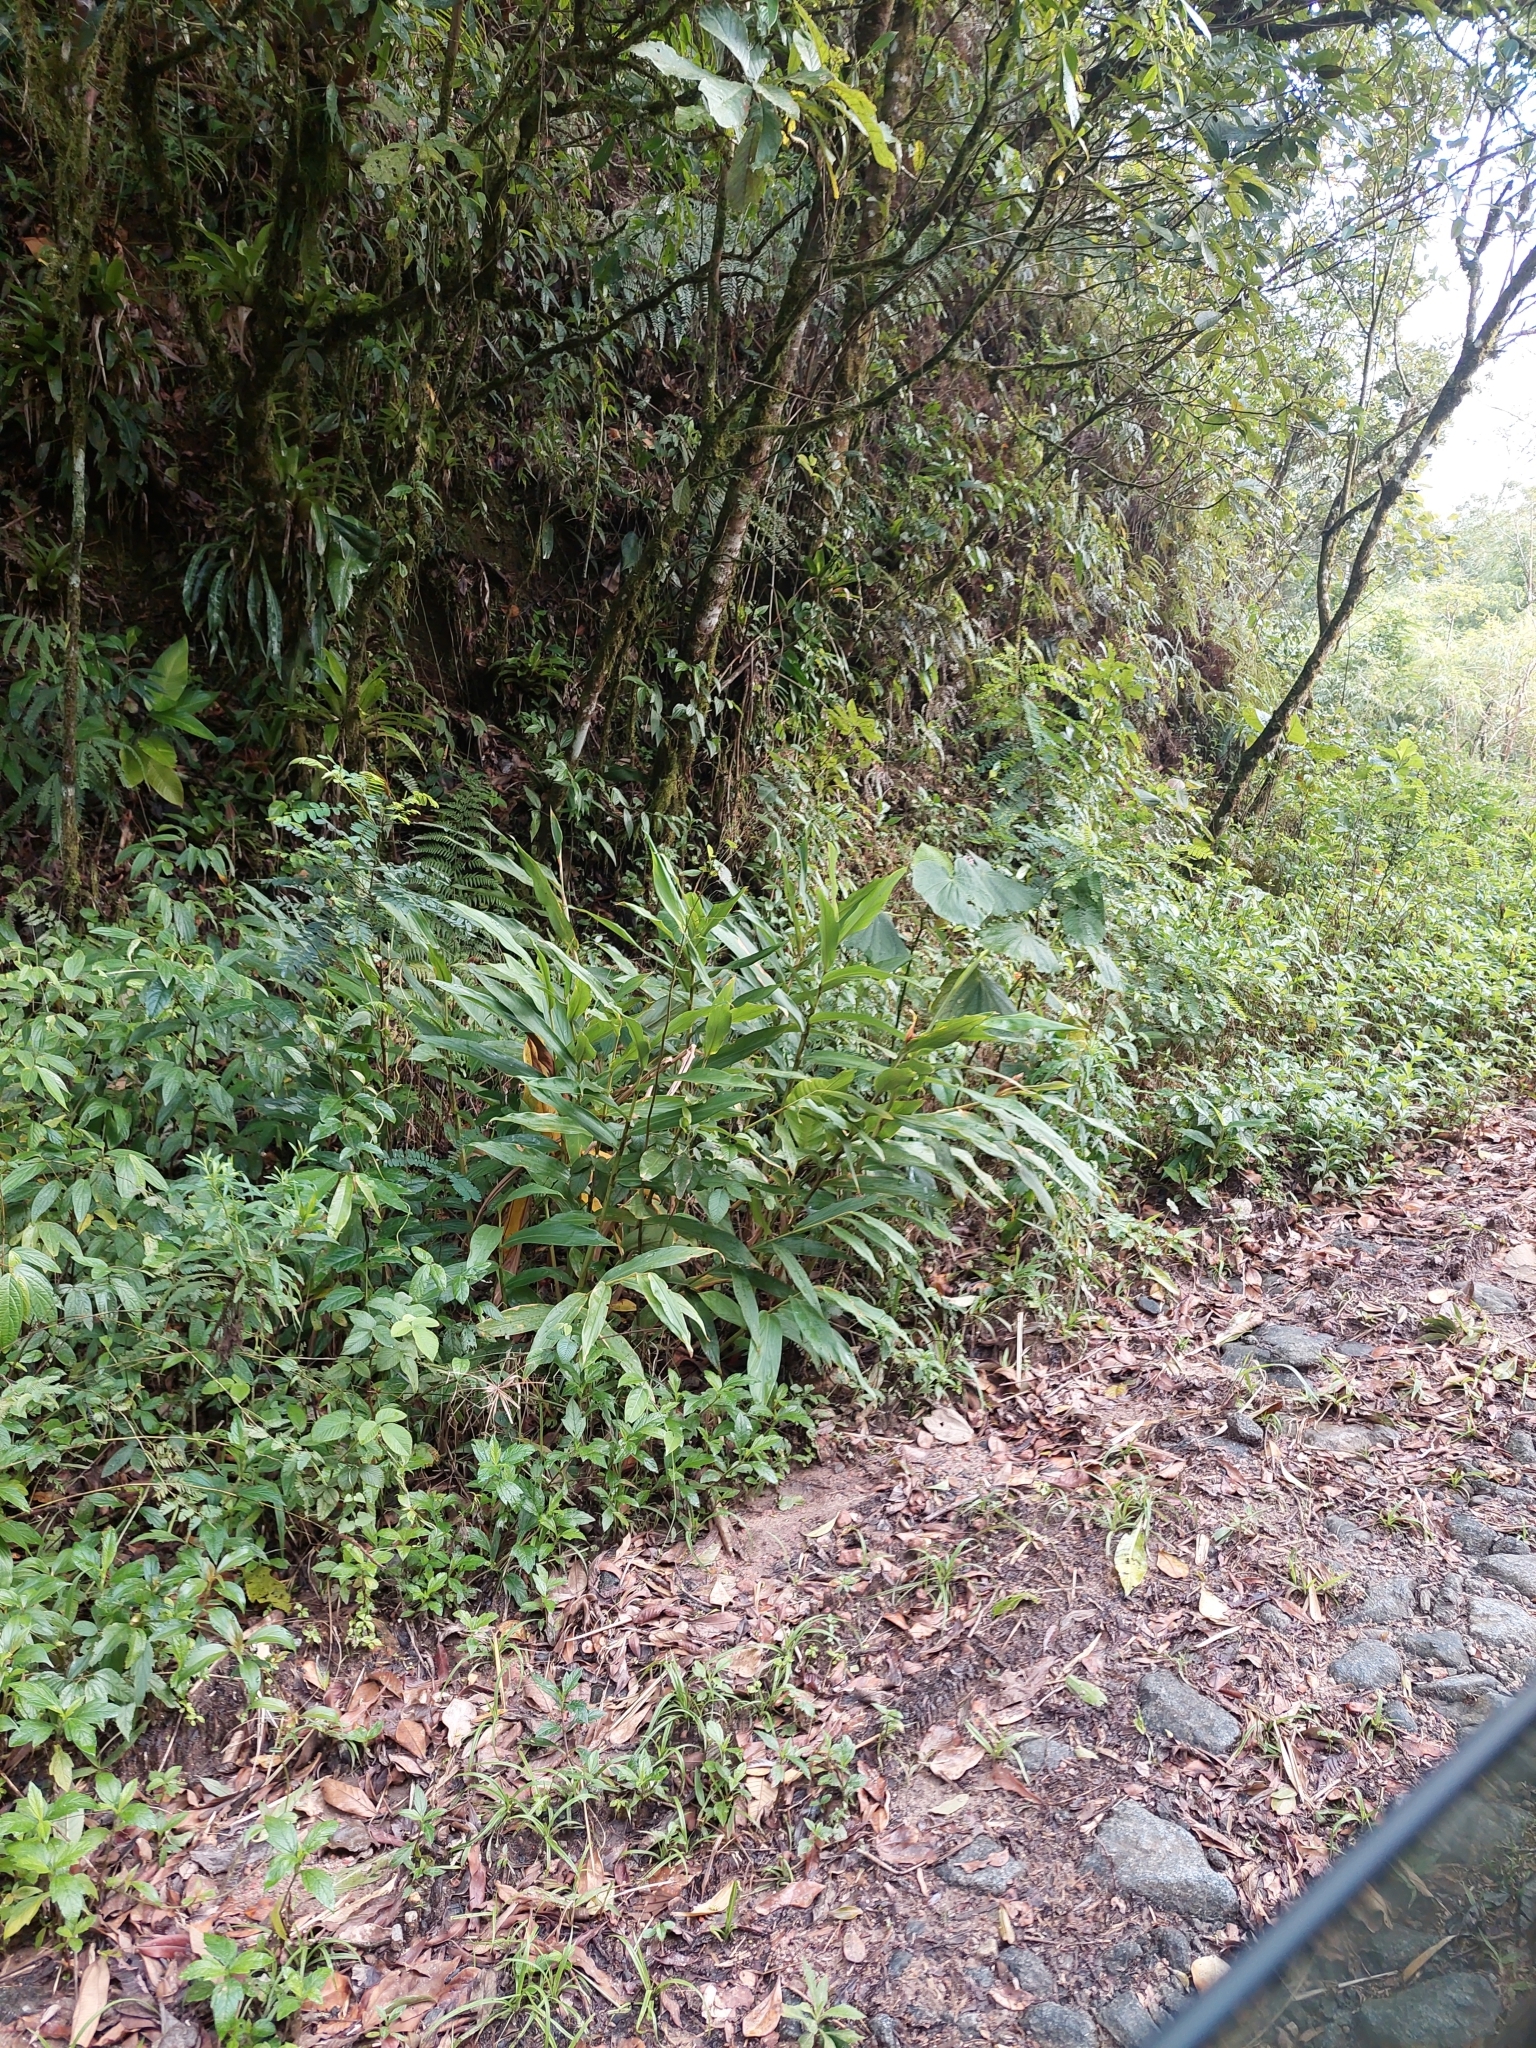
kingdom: Plantae
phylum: Tracheophyta
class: Liliopsida
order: Zingiberales
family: Zingiberaceae
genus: Hedychium
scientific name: Hedychium coronarium
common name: White garland-lily
